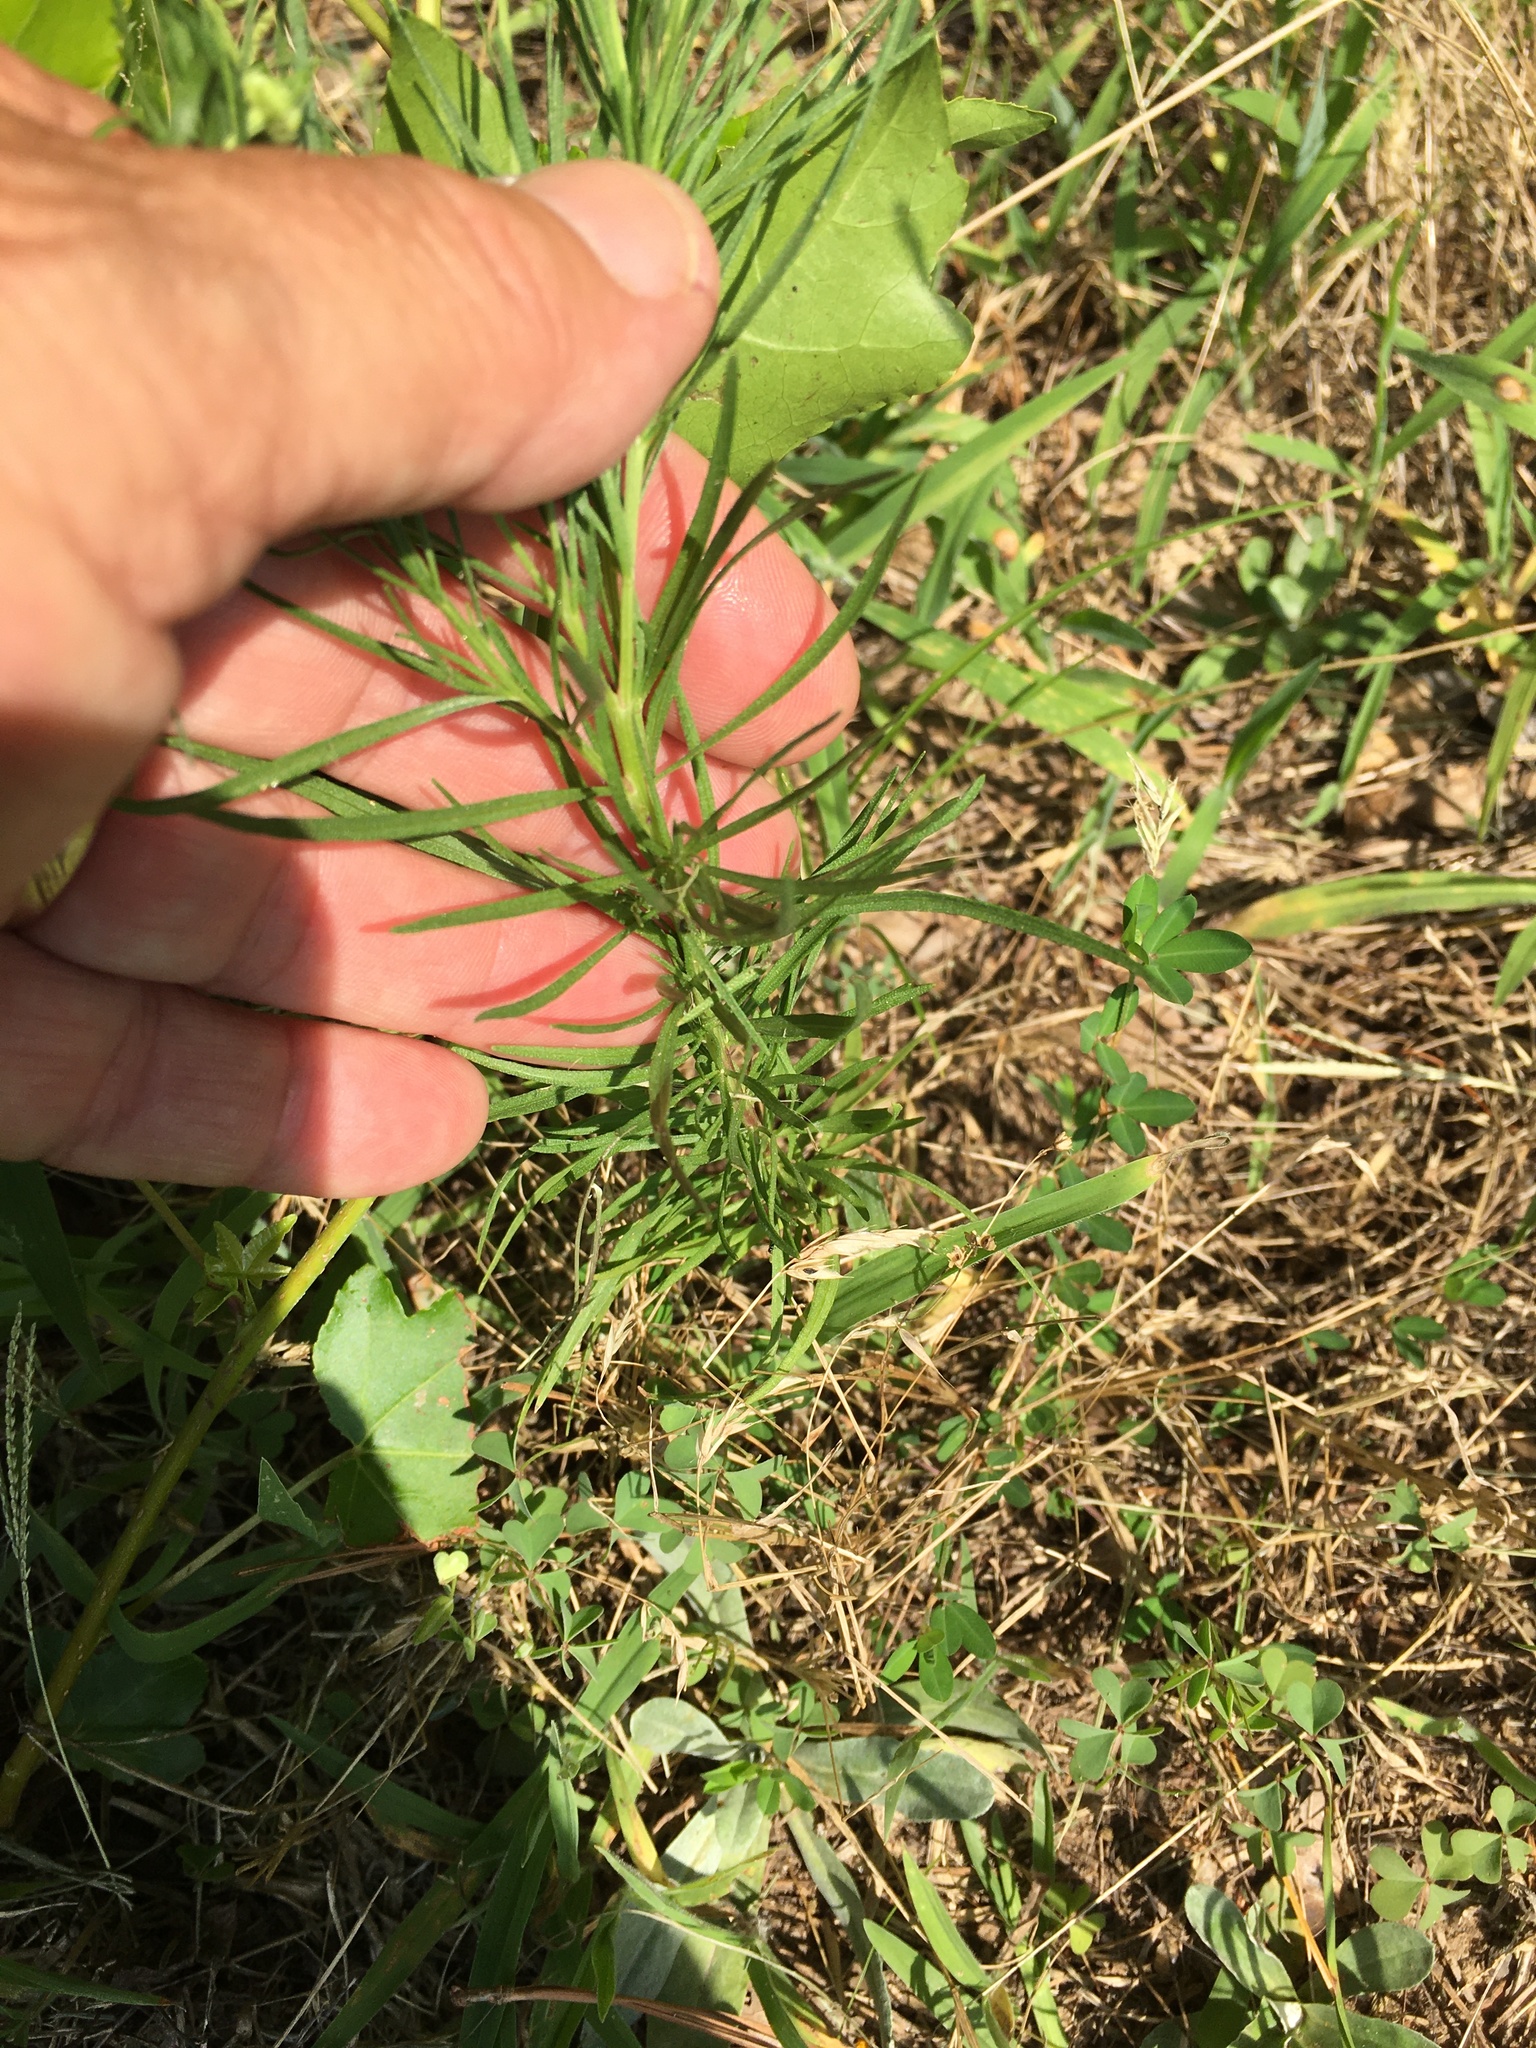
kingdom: Plantae
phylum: Tracheophyta
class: Magnoliopsida
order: Asterales
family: Asteraceae
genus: Helenium
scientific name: Helenium amarum
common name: Bitter sneezeweed
